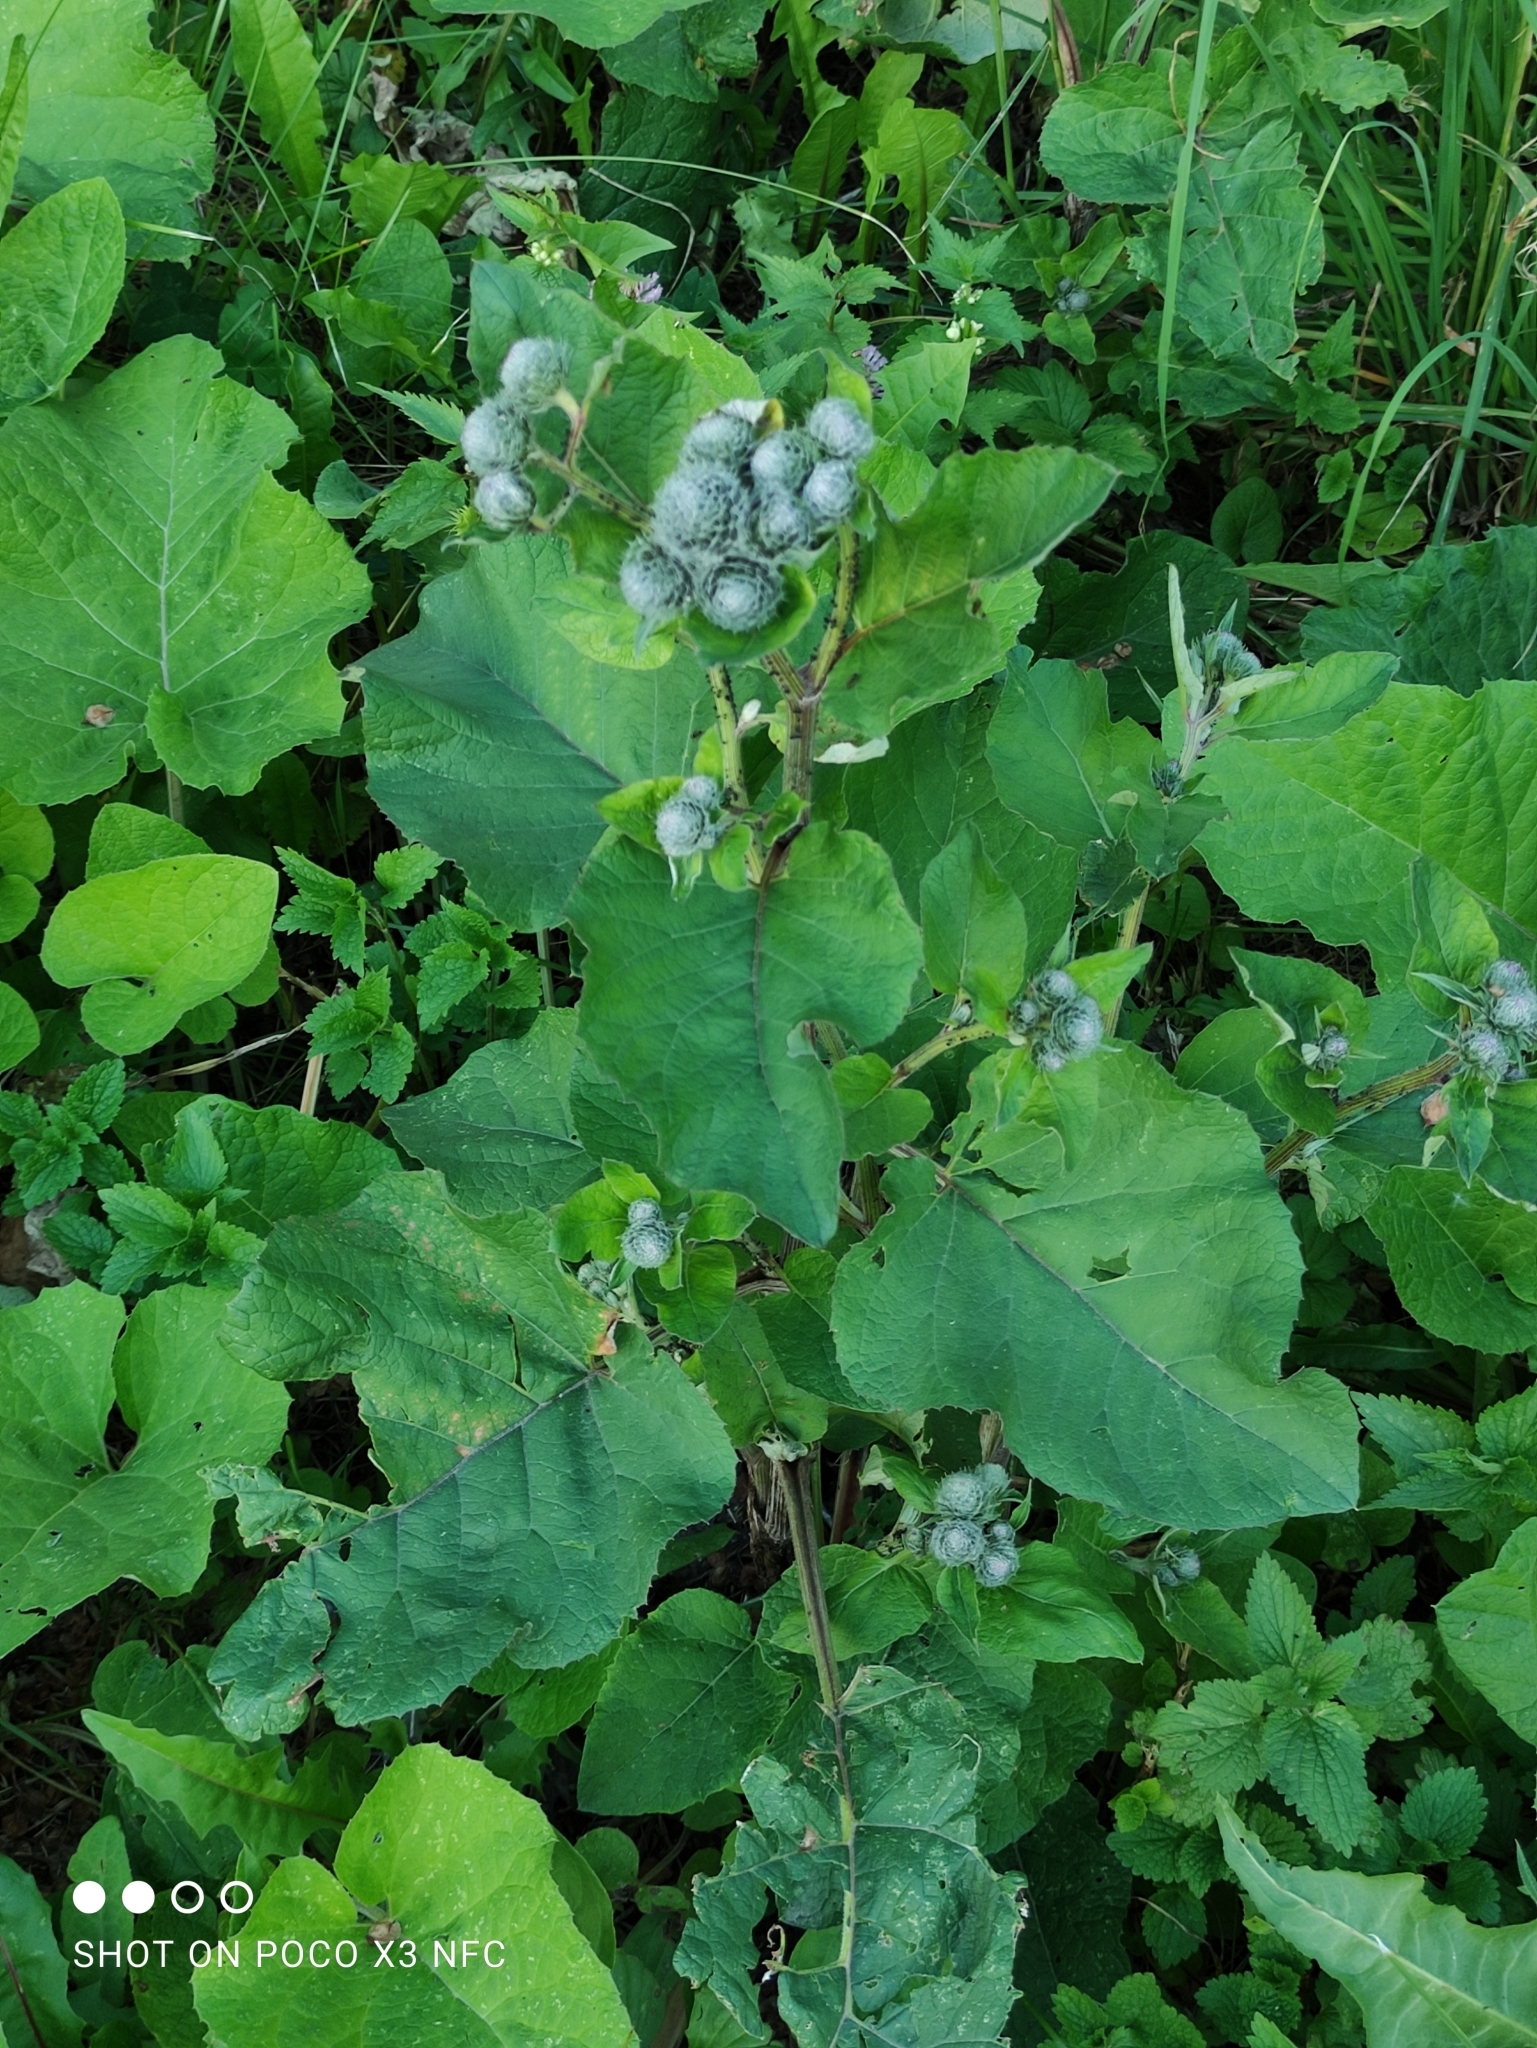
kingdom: Plantae
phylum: Tracheophyta
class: Magnoliopsida
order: Asterales
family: Asteraceae
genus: Arctium
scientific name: Arctium tomentosum
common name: Woolly burdock
